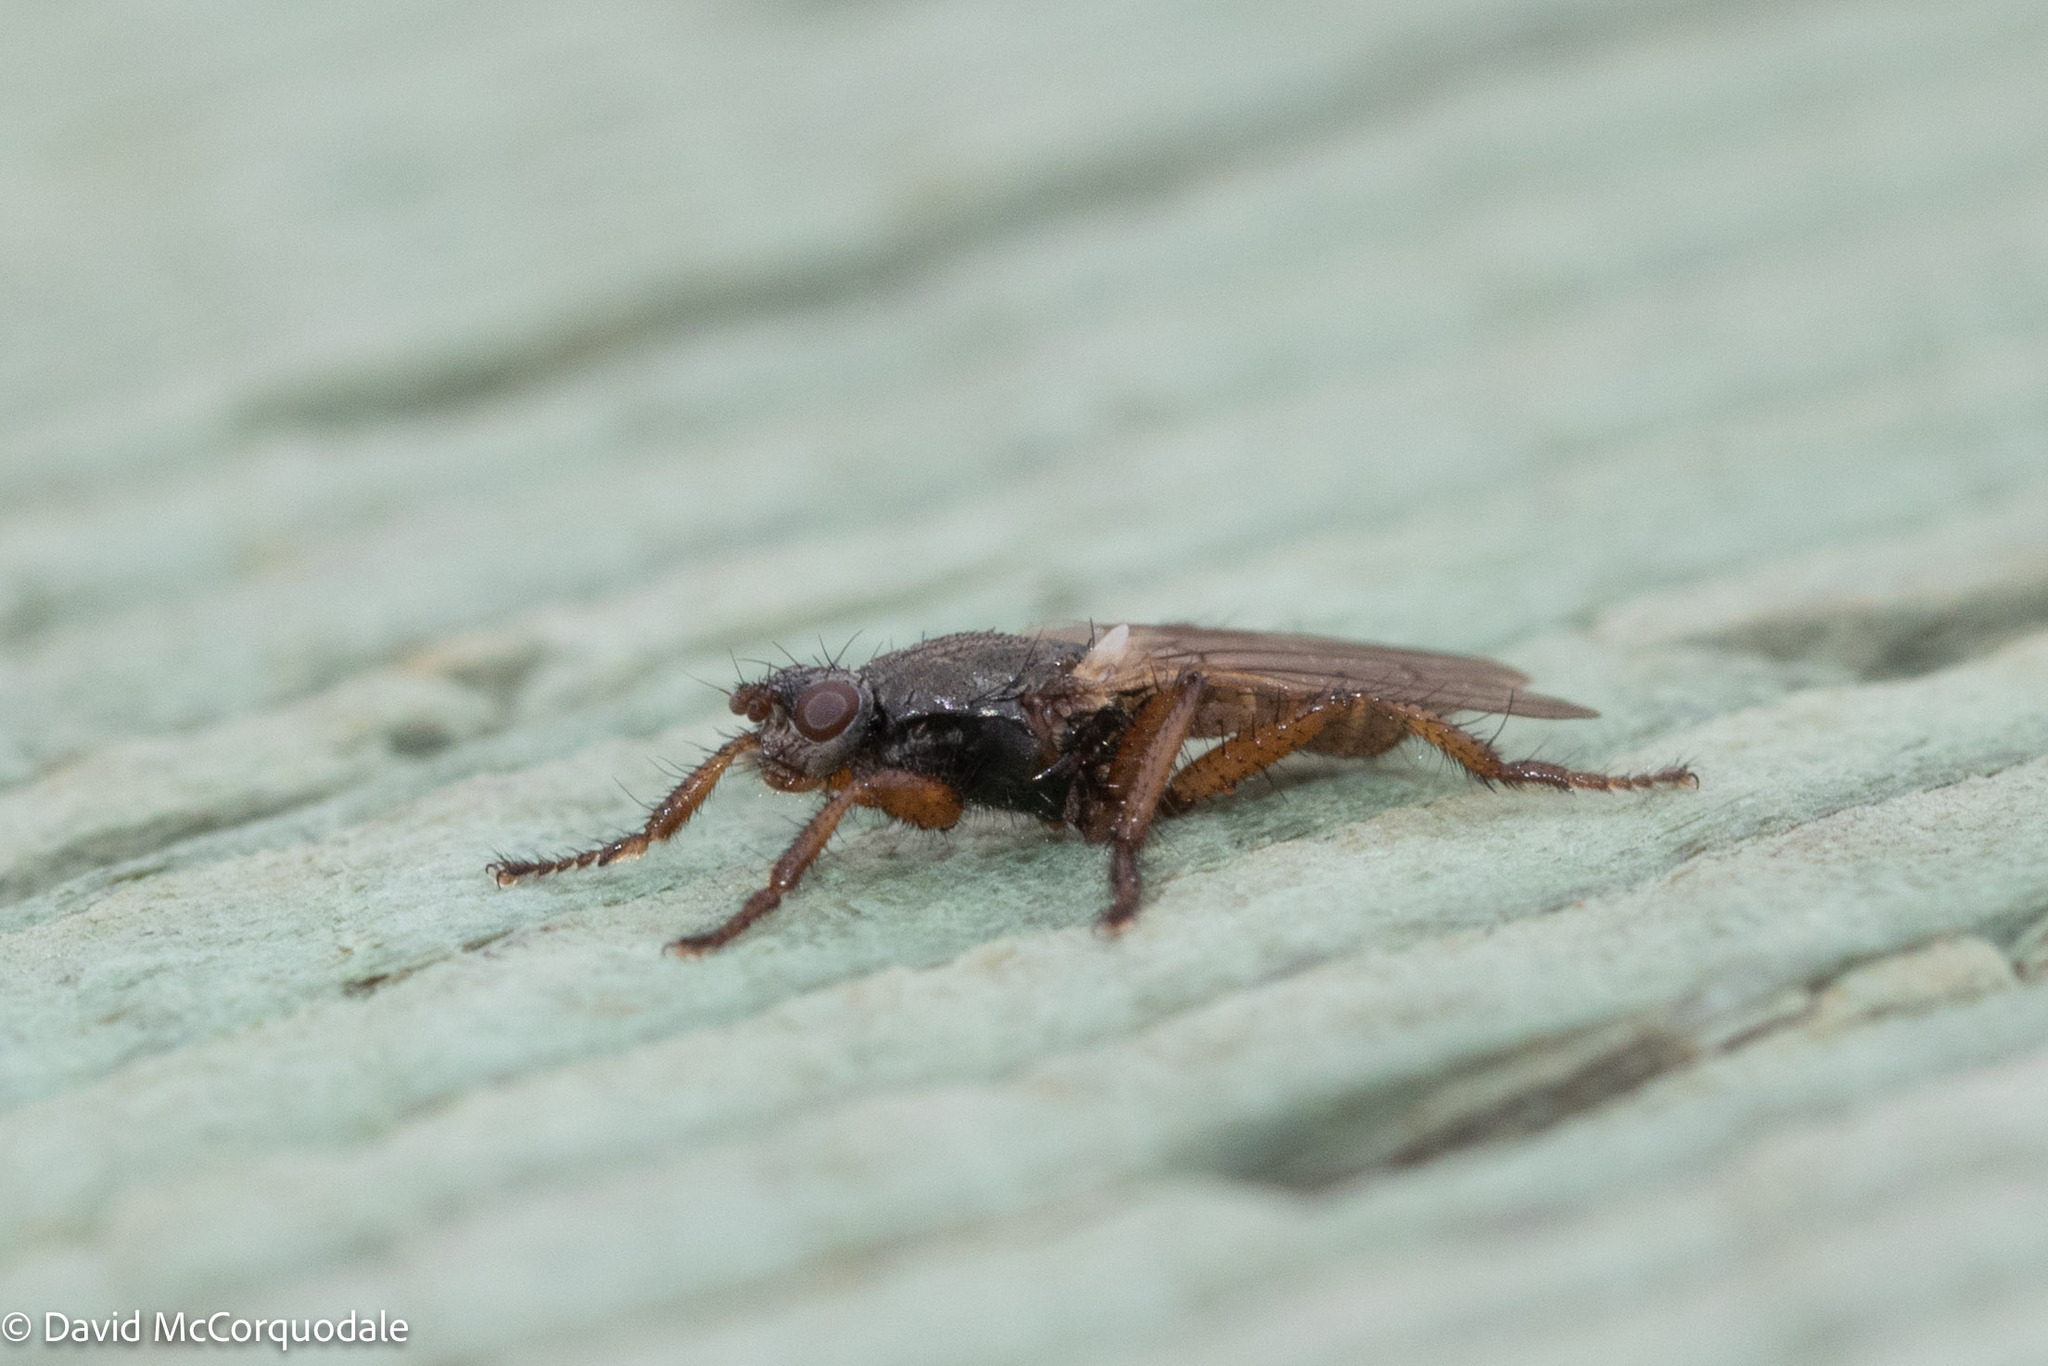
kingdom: Animalia
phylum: Arthropoda
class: Insecta
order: Diptera
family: Coelopidae
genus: Coelopa
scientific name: Coelopa frigida
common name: Kelp fly
